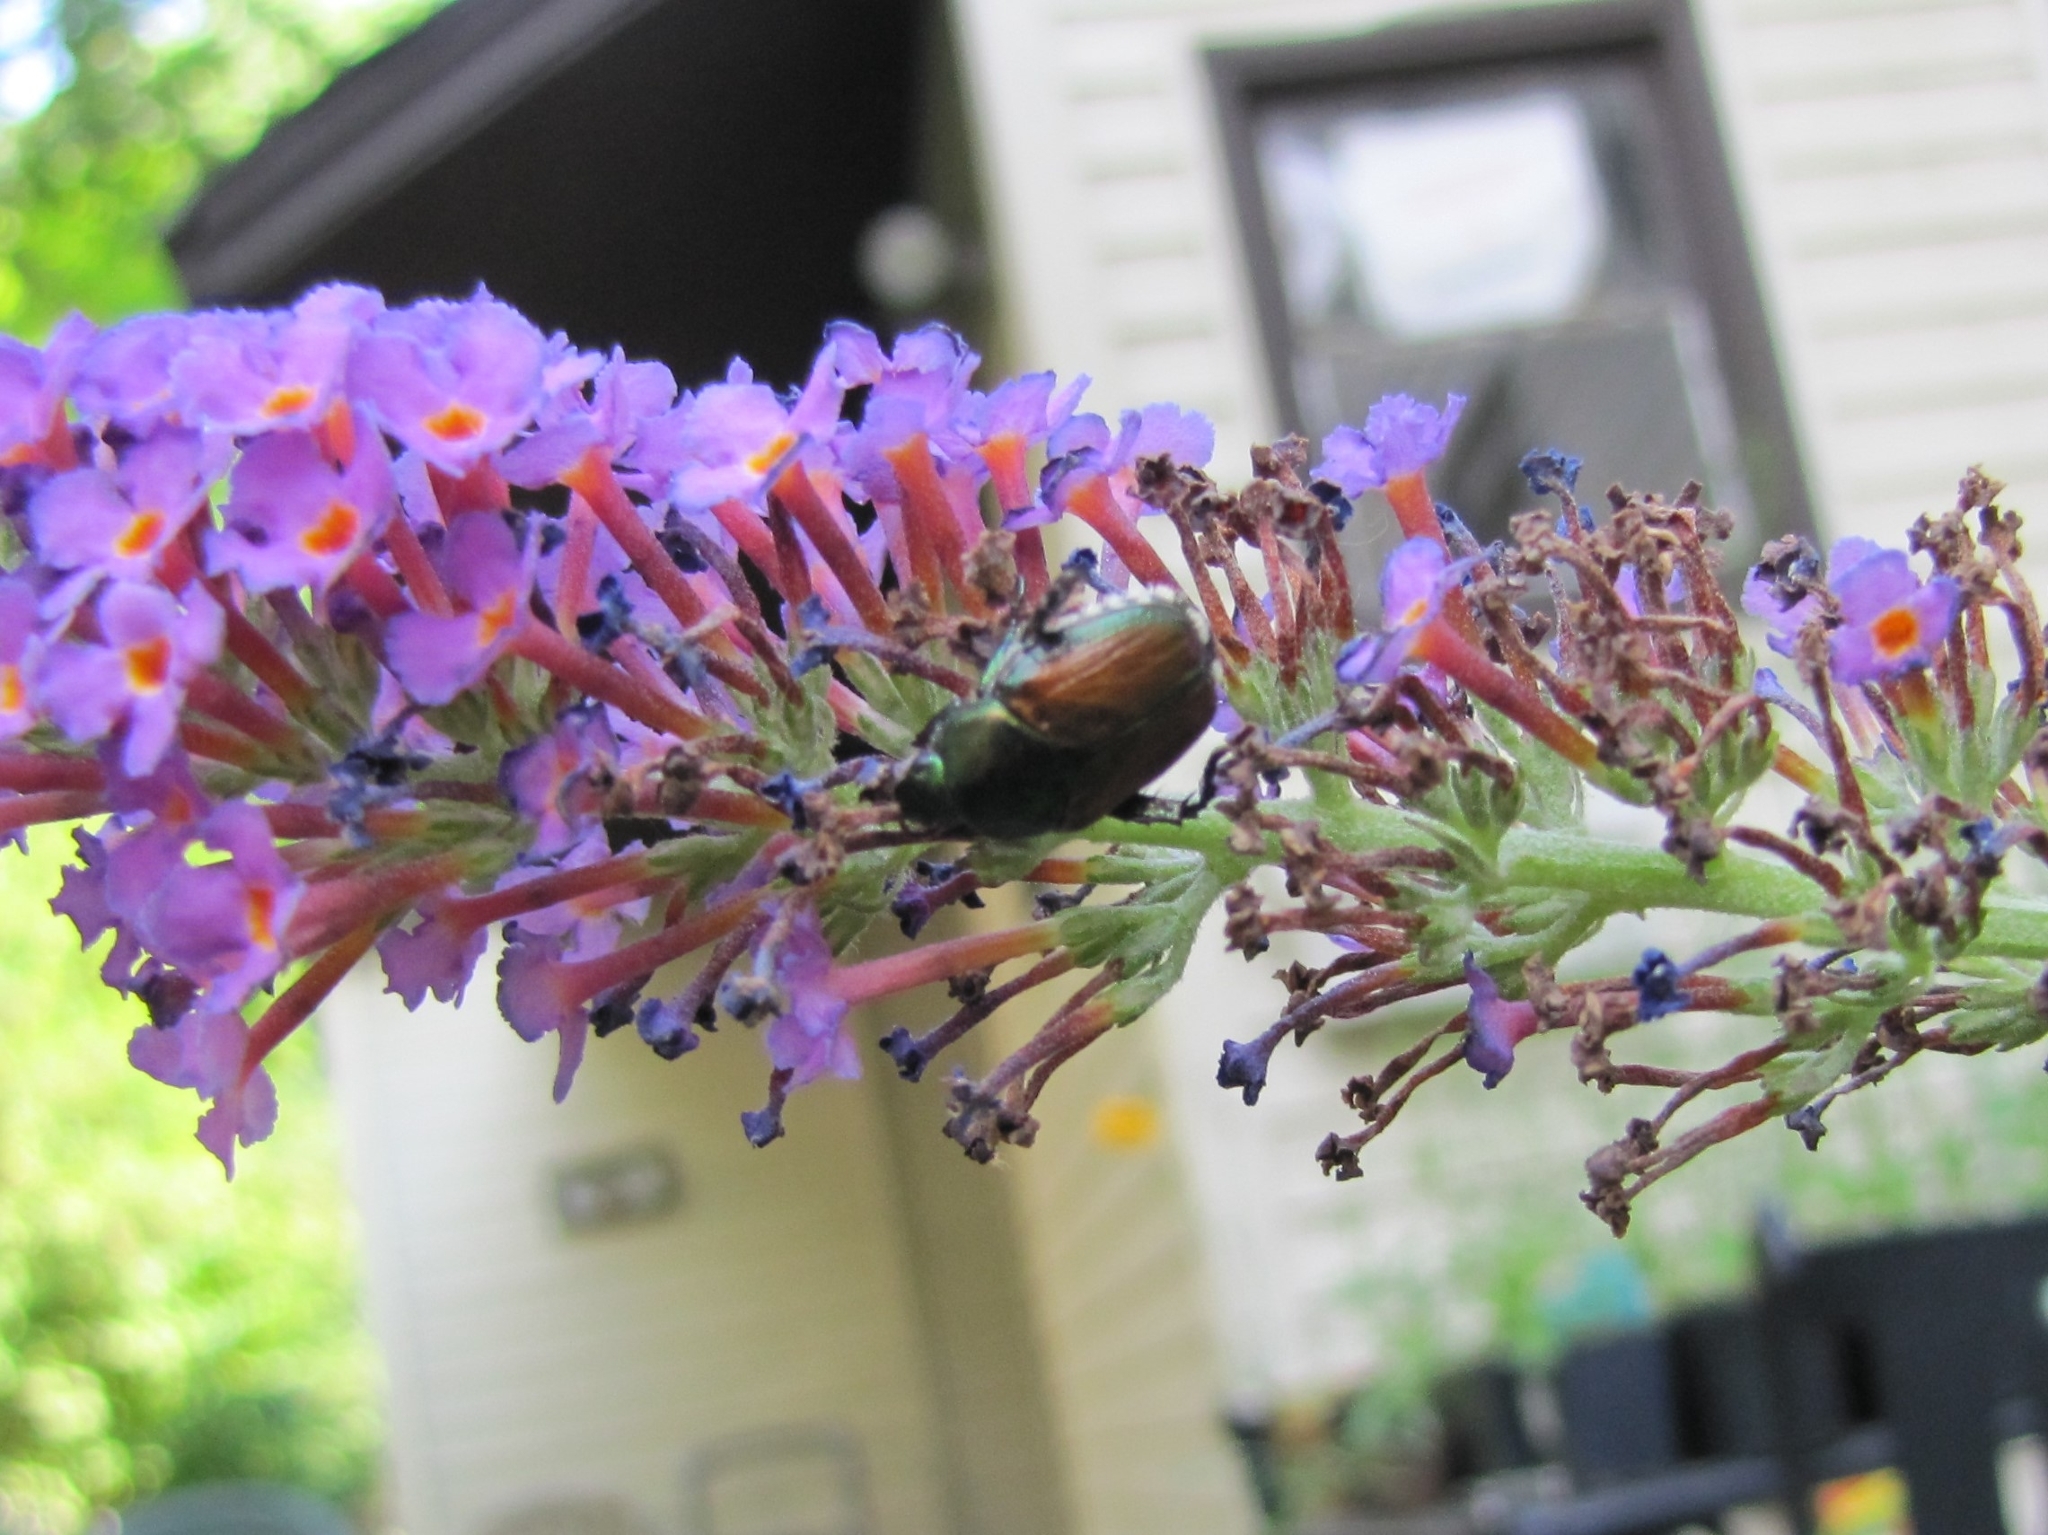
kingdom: Animalia
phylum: Arthropoda
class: Insecta
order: Coleoptera
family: Scarabaeidae
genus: Popillia
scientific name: Popillia japonica
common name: Japanese beetle
